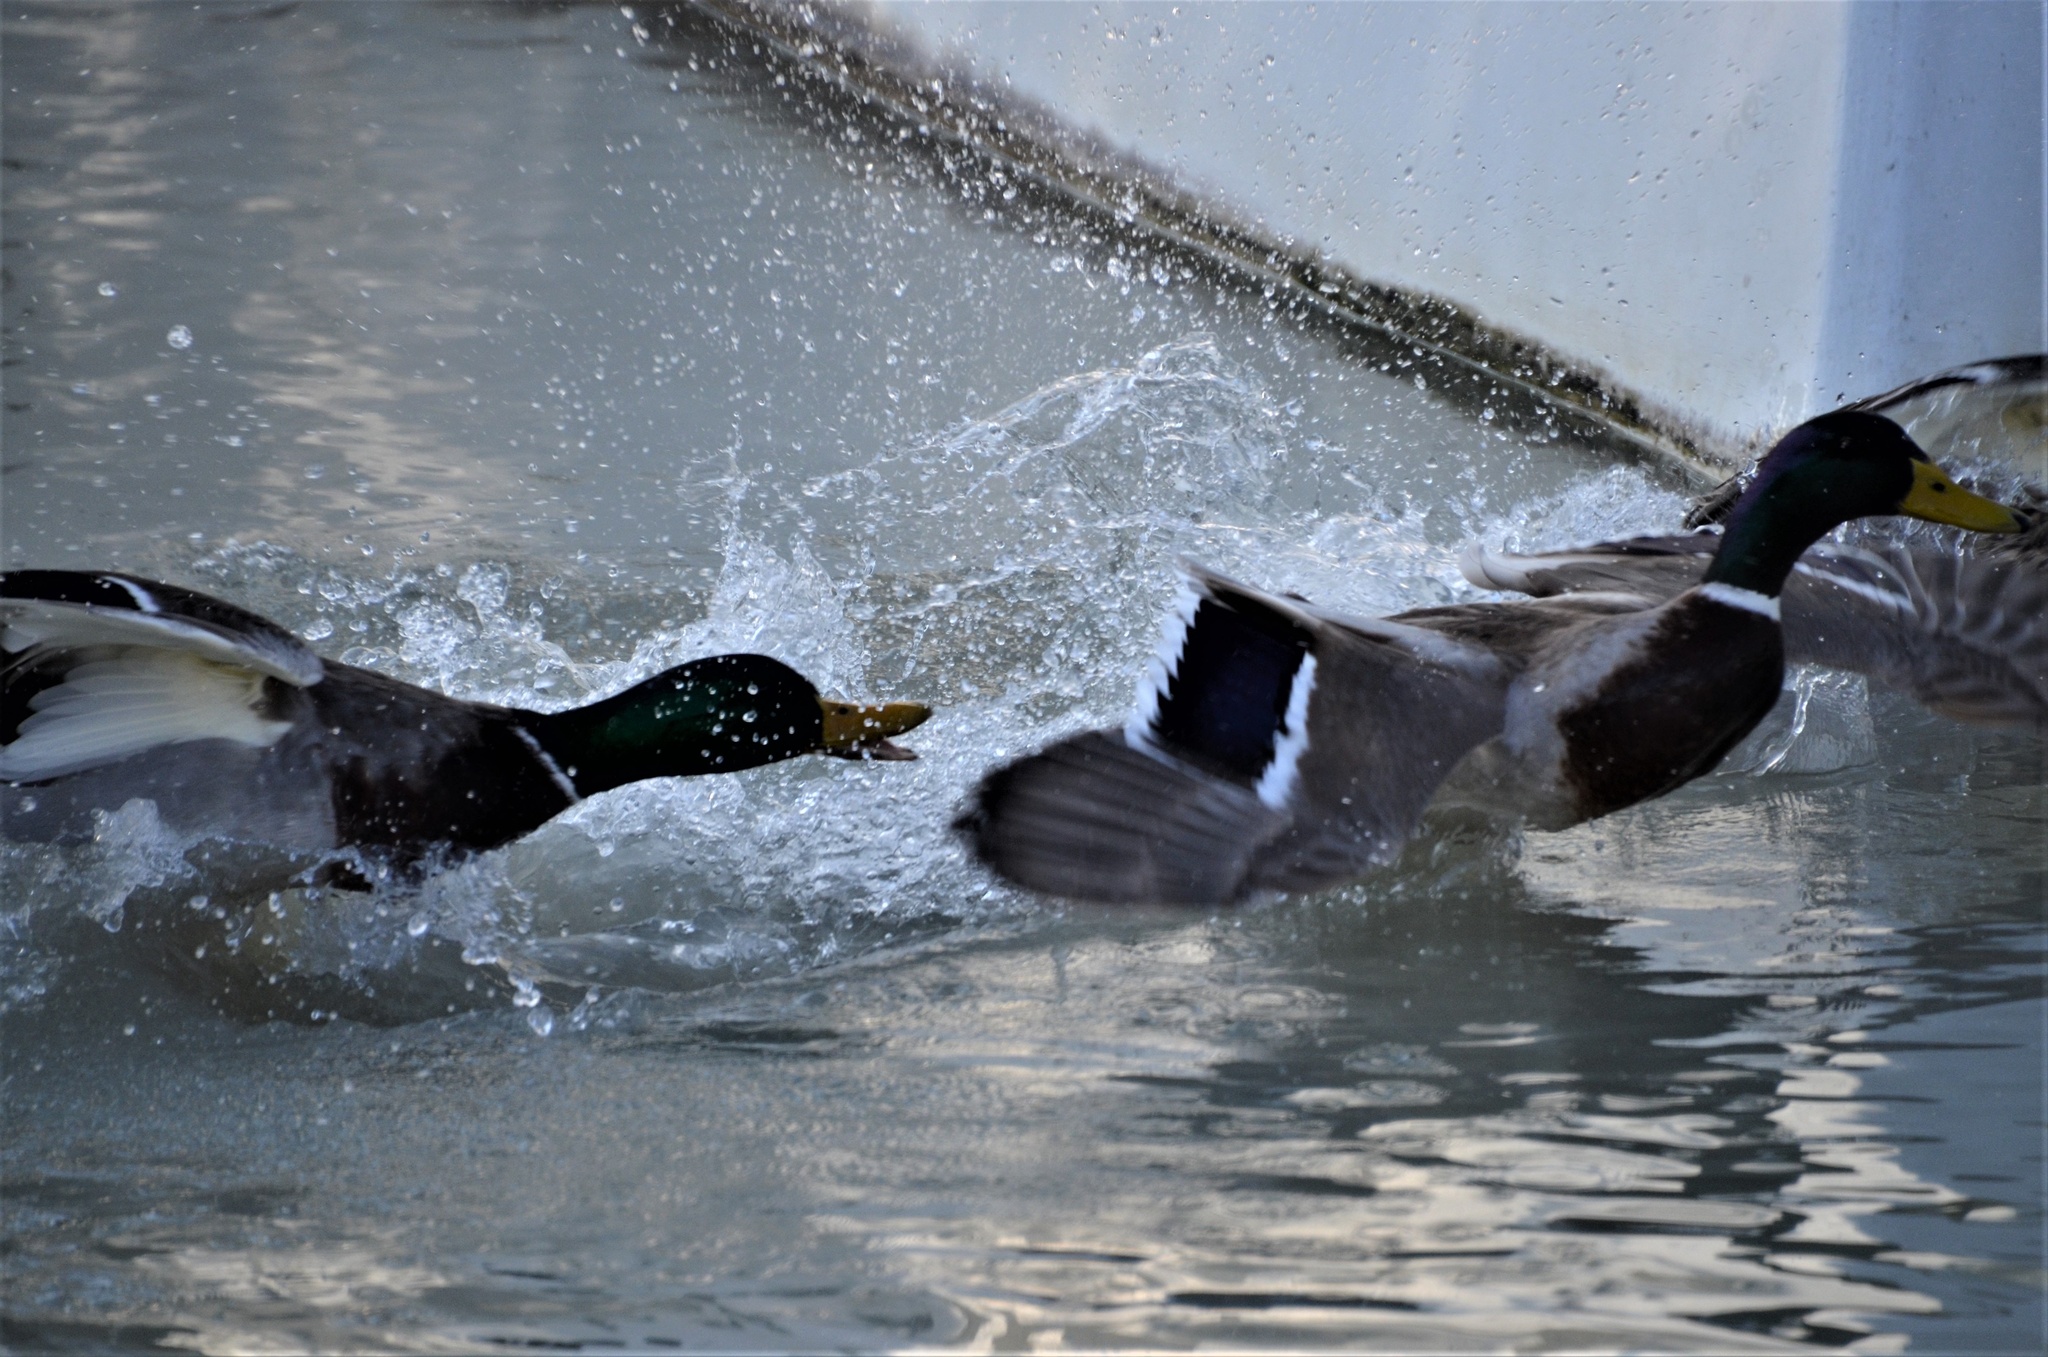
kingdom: Animalia
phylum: Chordata
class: Aves
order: Anseriformes
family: Anatidae
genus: Anas
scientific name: Anas platyrhynchos
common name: Mallard
